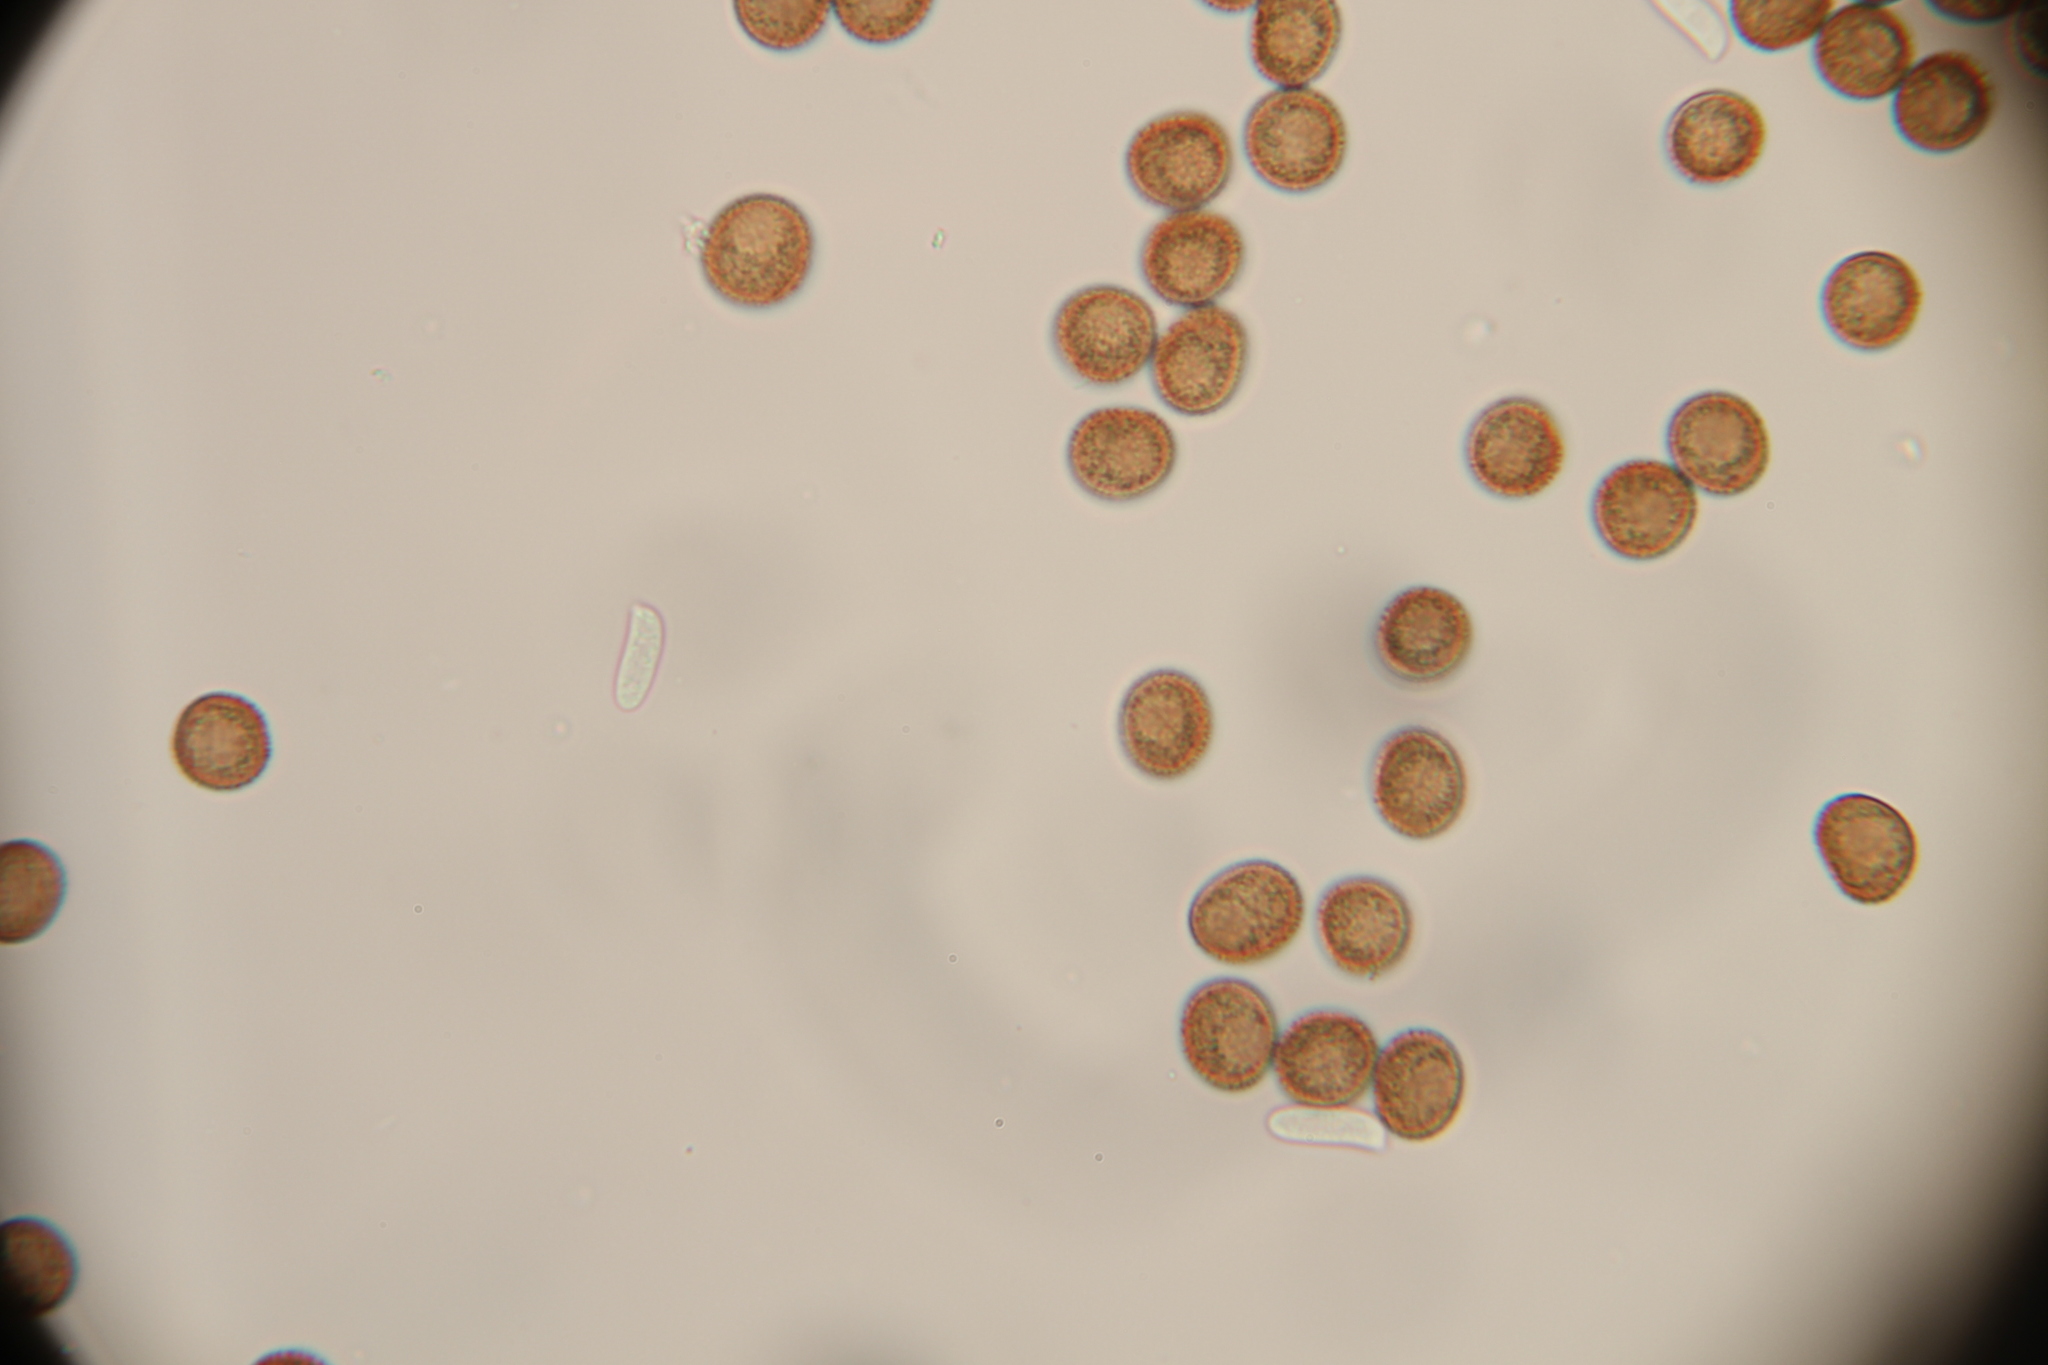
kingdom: Protozoa
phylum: Mycetozoa
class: Myxomycetes
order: Physarales
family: Physaraceae
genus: Badhamia
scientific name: Badhamia utricularis
